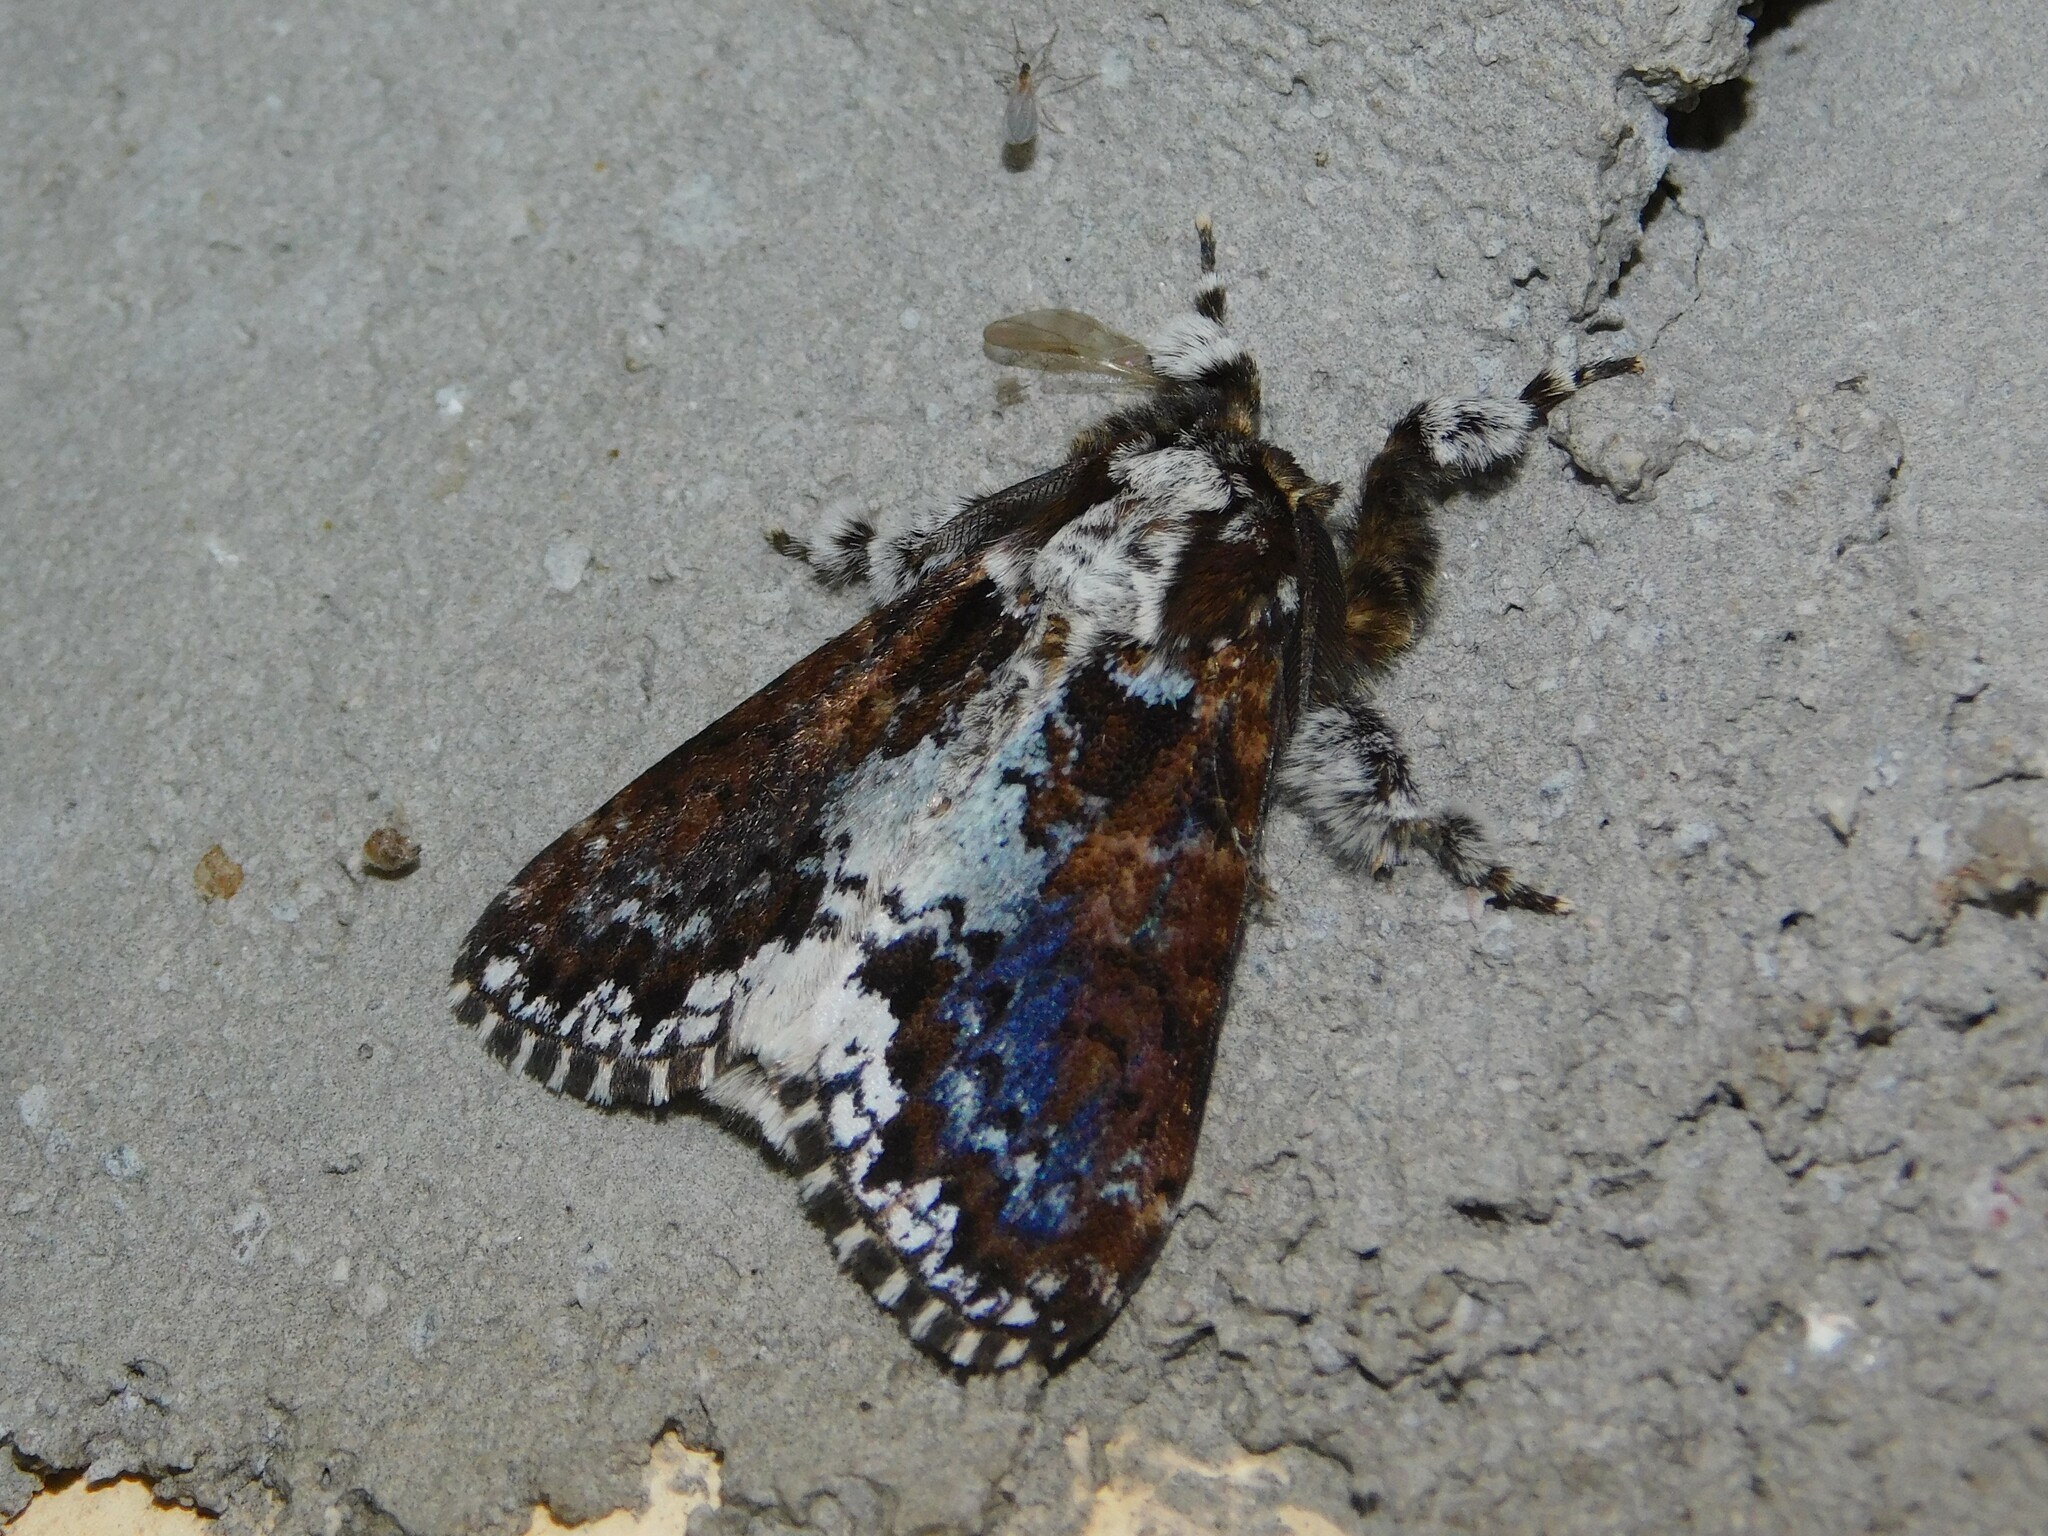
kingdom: Animalia
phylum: Arthropoda
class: Insecta
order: Lepidoptera
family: Erebidae
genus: Dasychira
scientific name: Dasychira goodii
